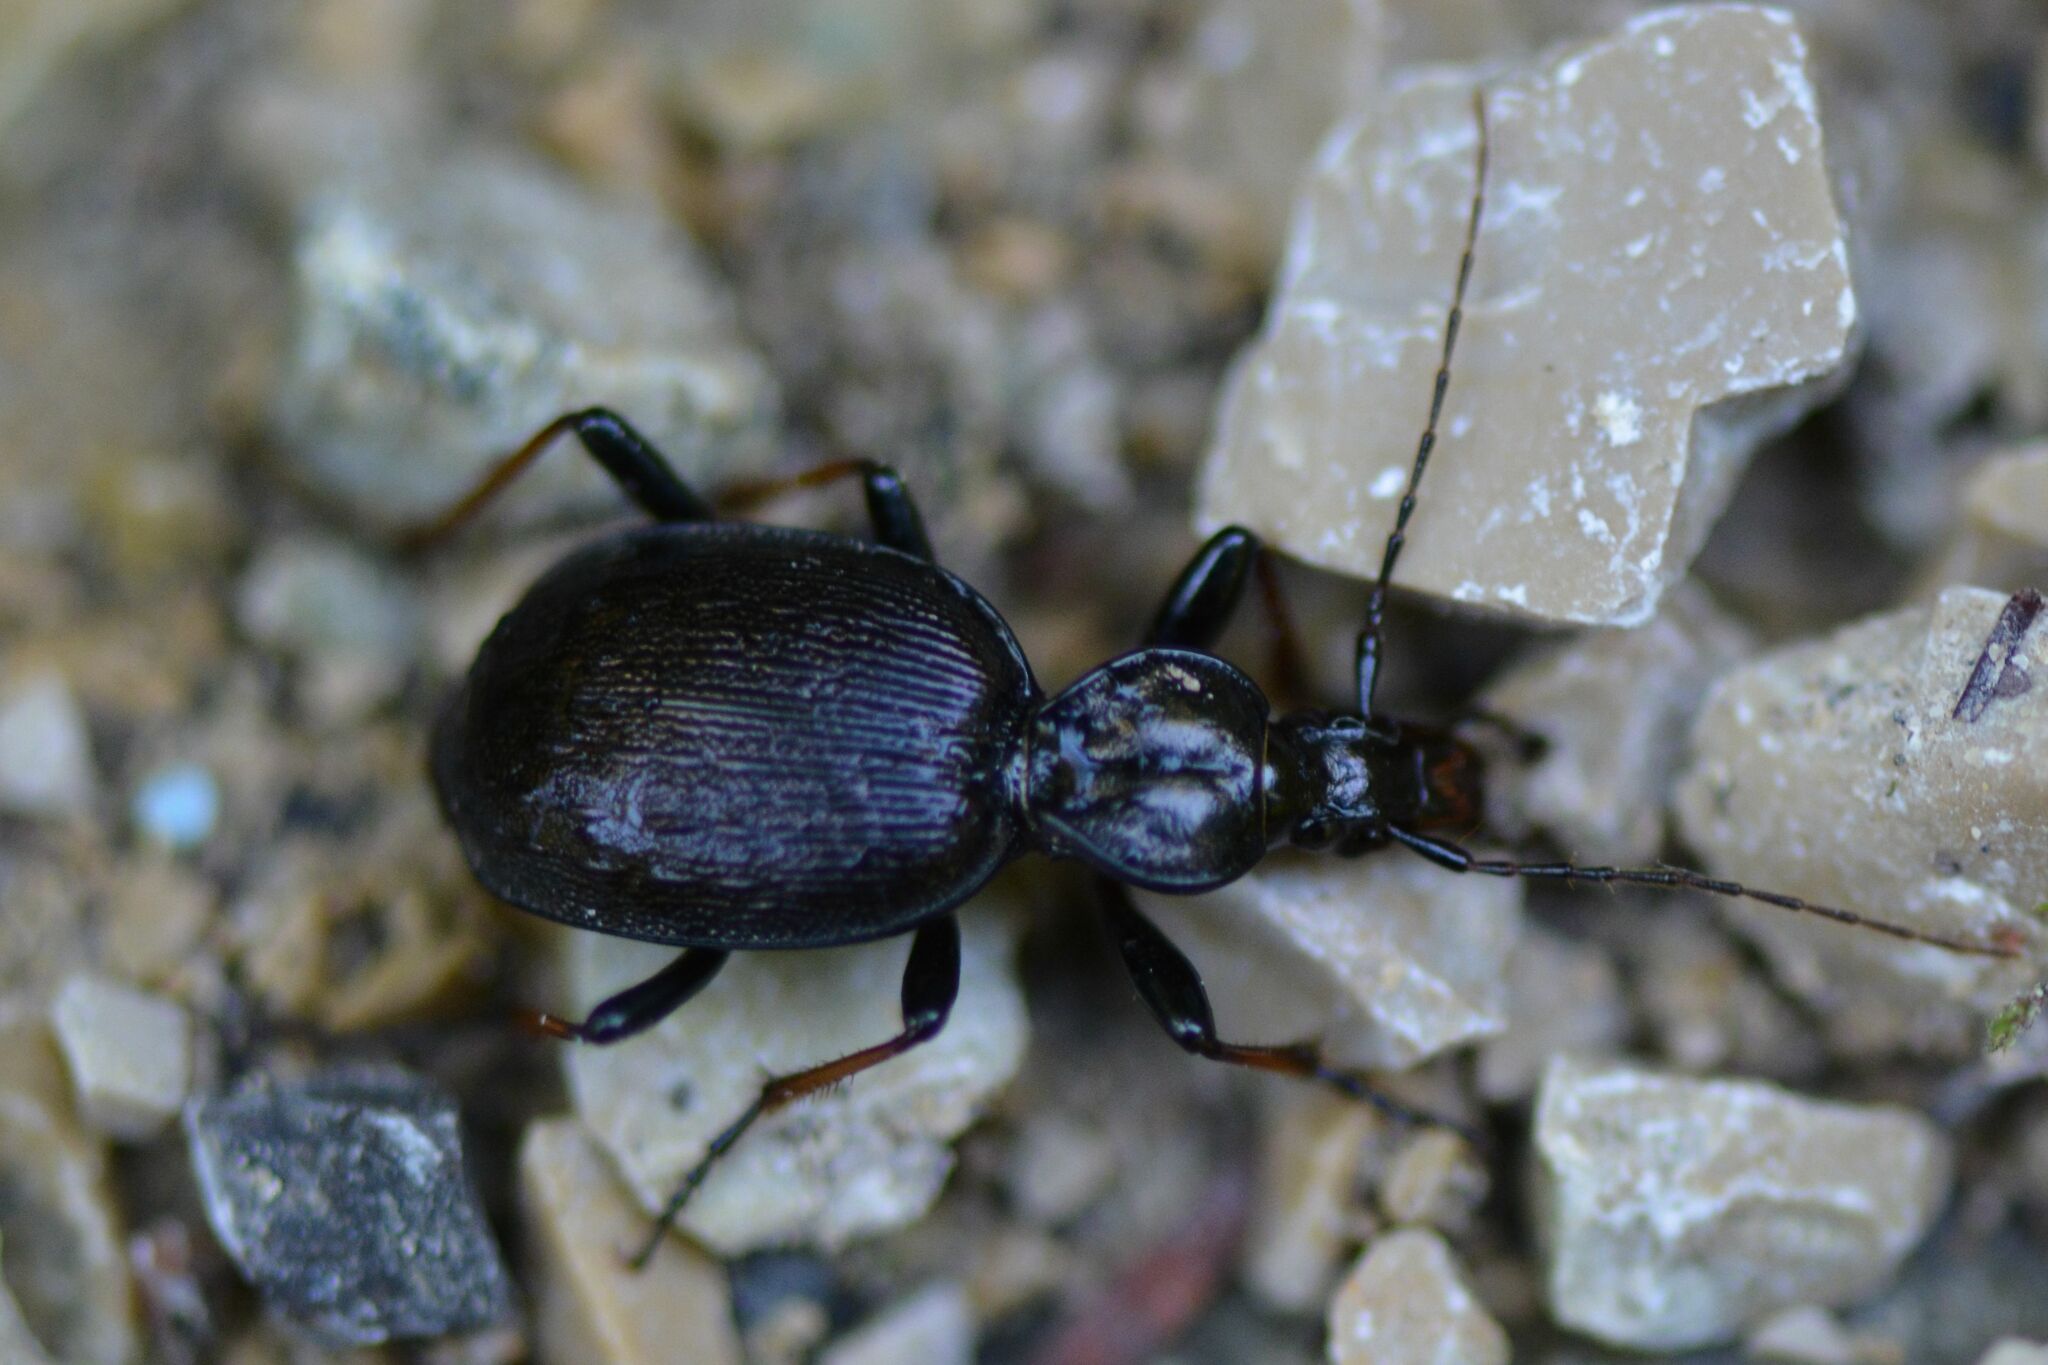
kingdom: Animalia
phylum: Arthropoda
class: Insecta
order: Coleoptera
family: Carabidae
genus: Cychrus
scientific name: Cychrus attenuatus
